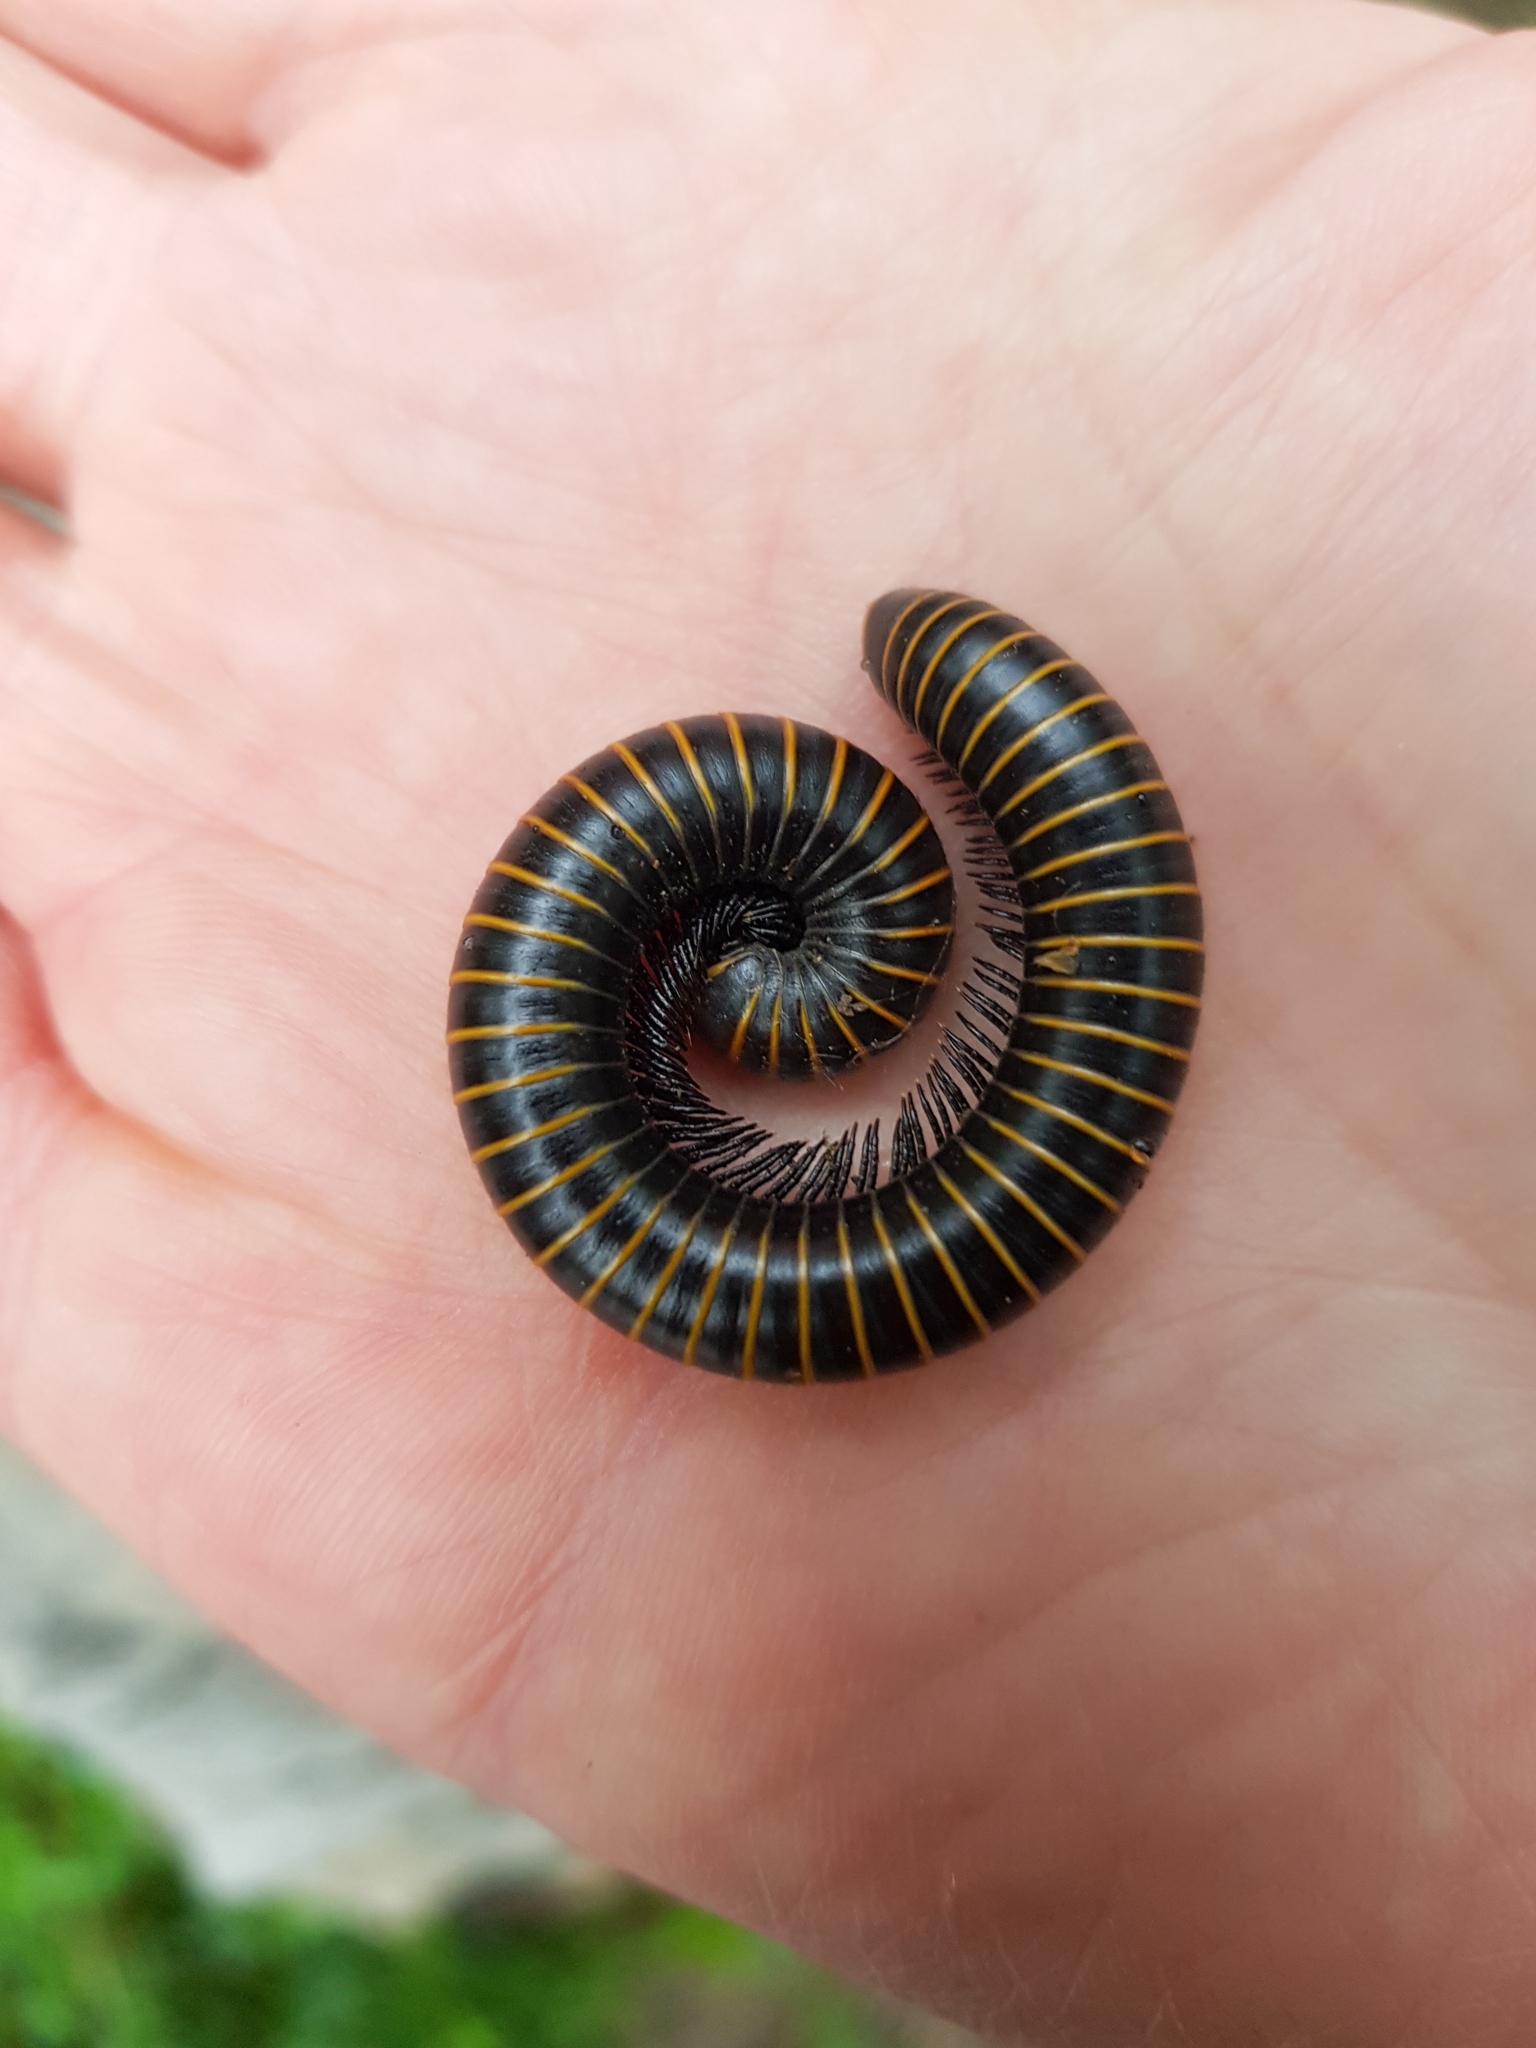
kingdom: Animalia
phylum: Arthropoda
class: Diplopoda
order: Spirobolida
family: Spirobolidae
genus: Spirobolus
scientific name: Spirobolus bungii
